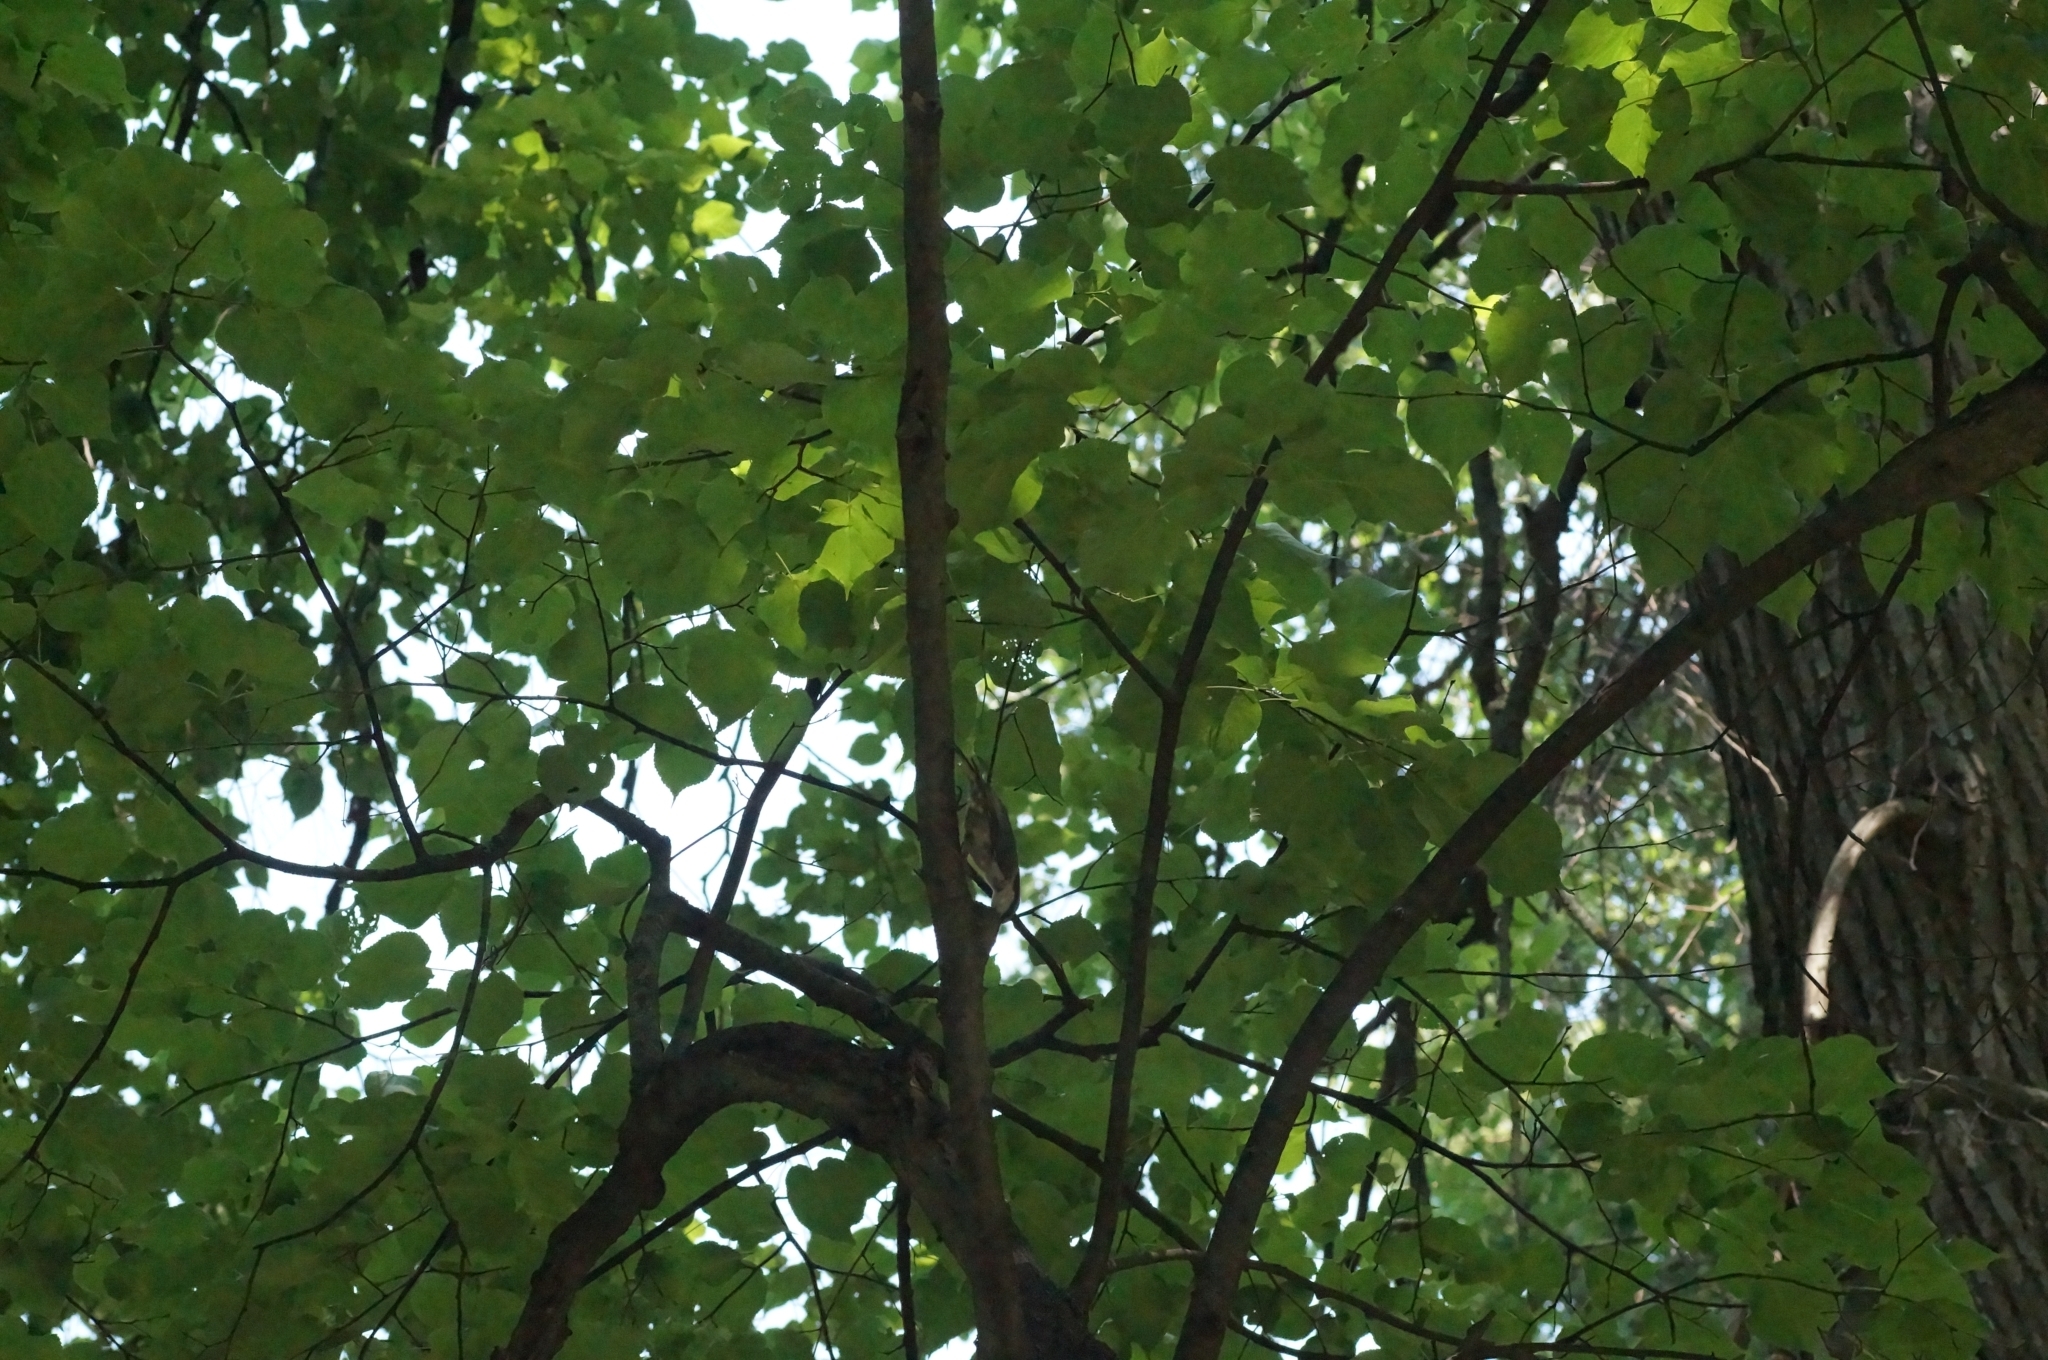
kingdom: Animalia
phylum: Chordata
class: Aves
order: Passeriformes
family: Sittidae
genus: Sitta
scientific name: Sitta europaea
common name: Eurasian nuthatch
